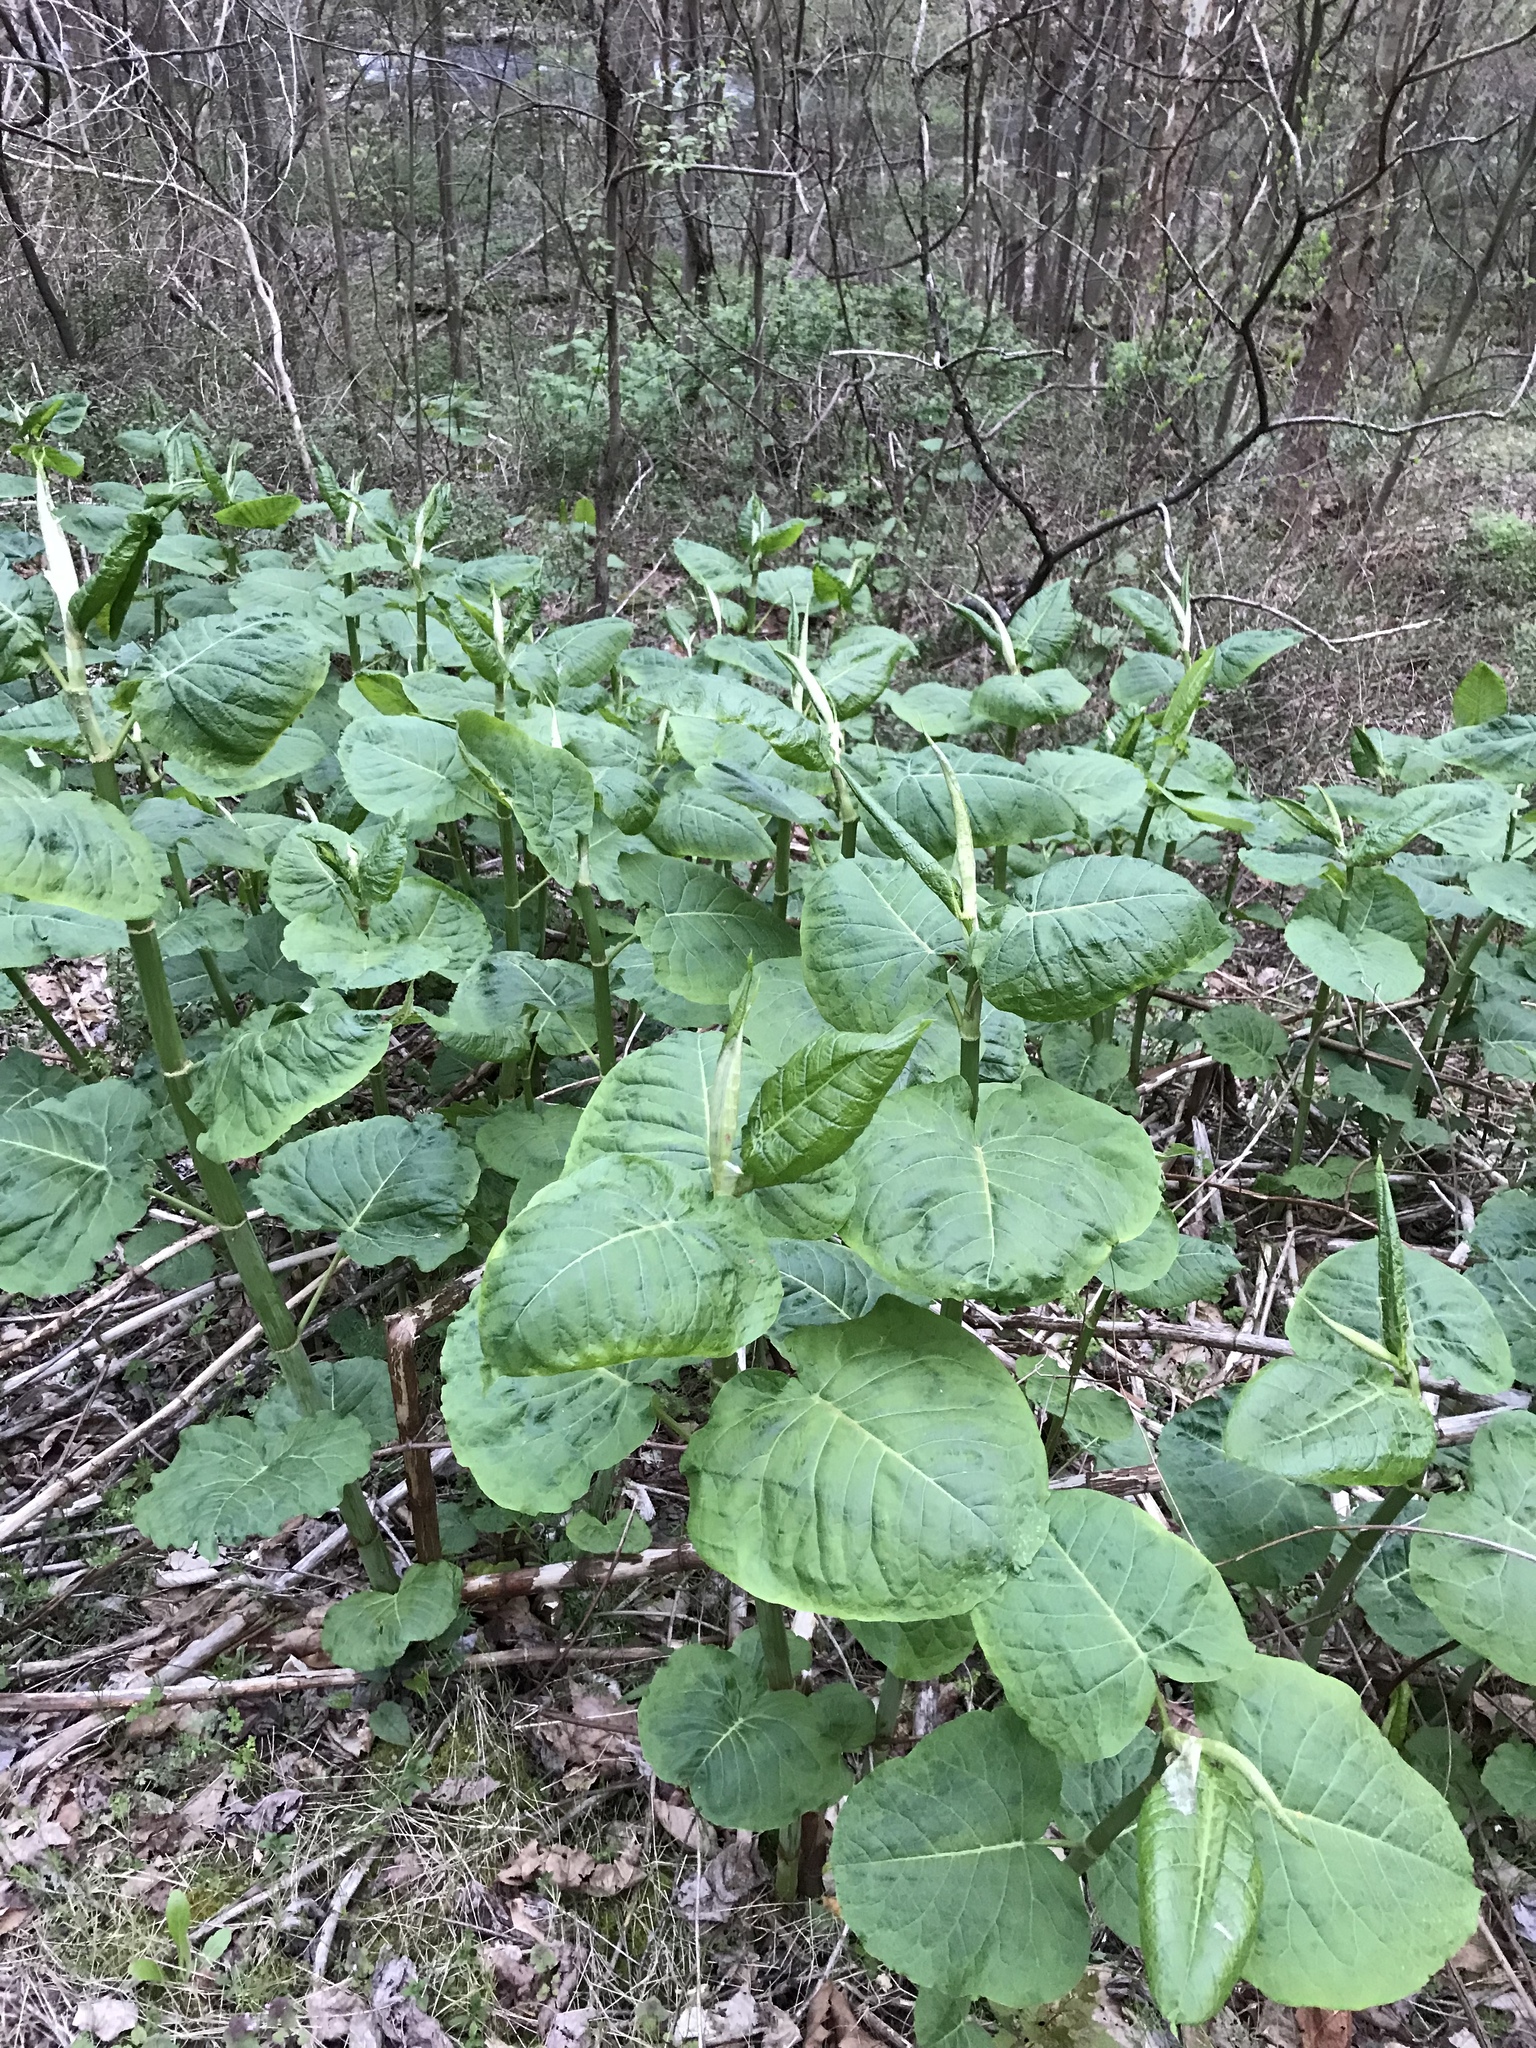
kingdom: Plantae
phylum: Tracheophyta
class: Magnoliopsida
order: Caryophyllales
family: Polygonaceae
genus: Reynoutria
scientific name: Reynoutria sachalinensis
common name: Giant knotweed
